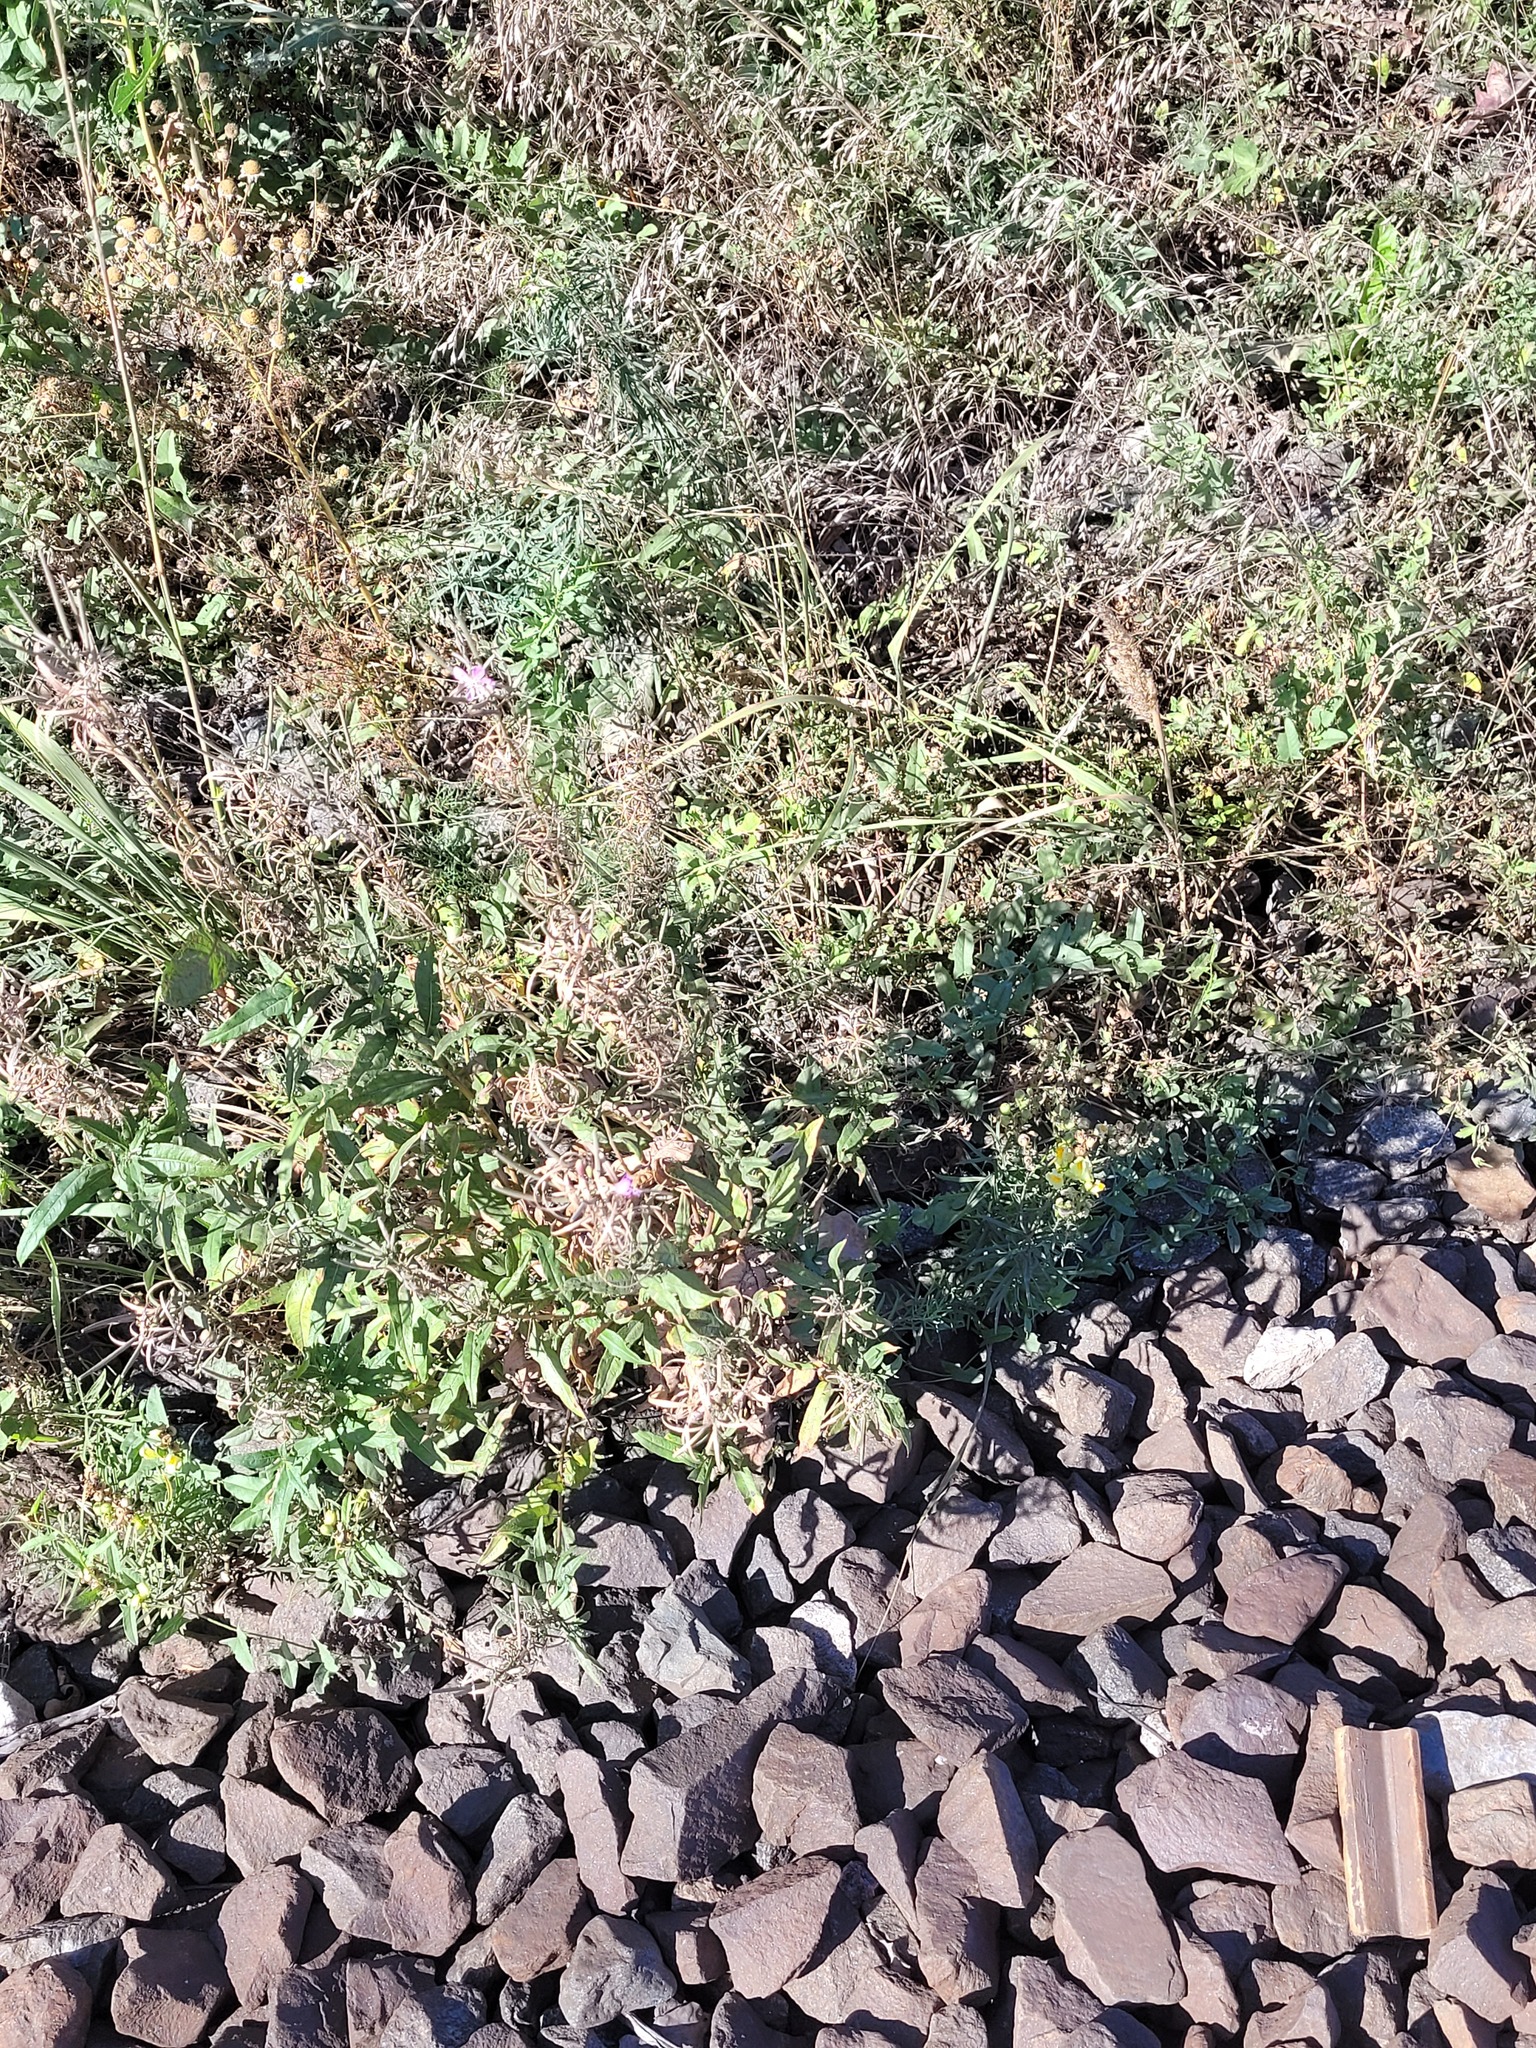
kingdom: Plantae
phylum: Tracheophyta
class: Magnoliopsida
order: Myrtales
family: Onagraceae
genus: Chamaenerion
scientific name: Chamaenerion angustifolium
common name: Fireweed
